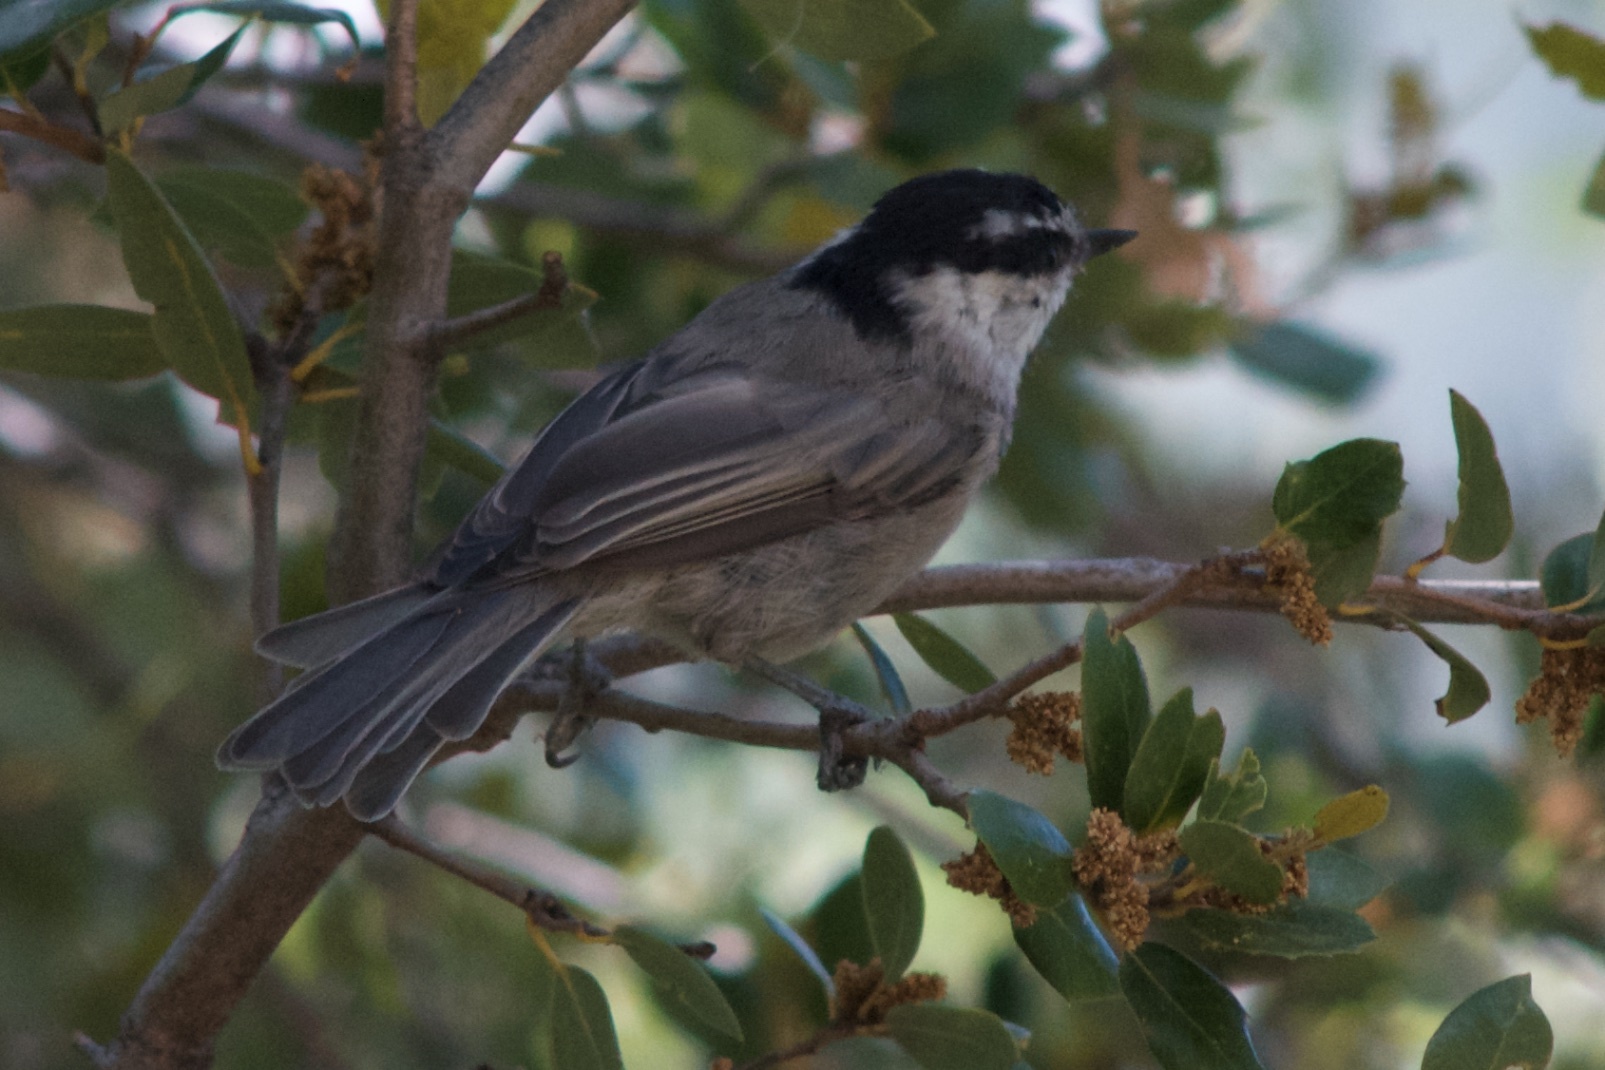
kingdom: Animalia
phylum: Chordata
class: Aves
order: Passeriformes
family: Paridae
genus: Poecile
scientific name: Poecile gambeli
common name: Mountain chickadee
